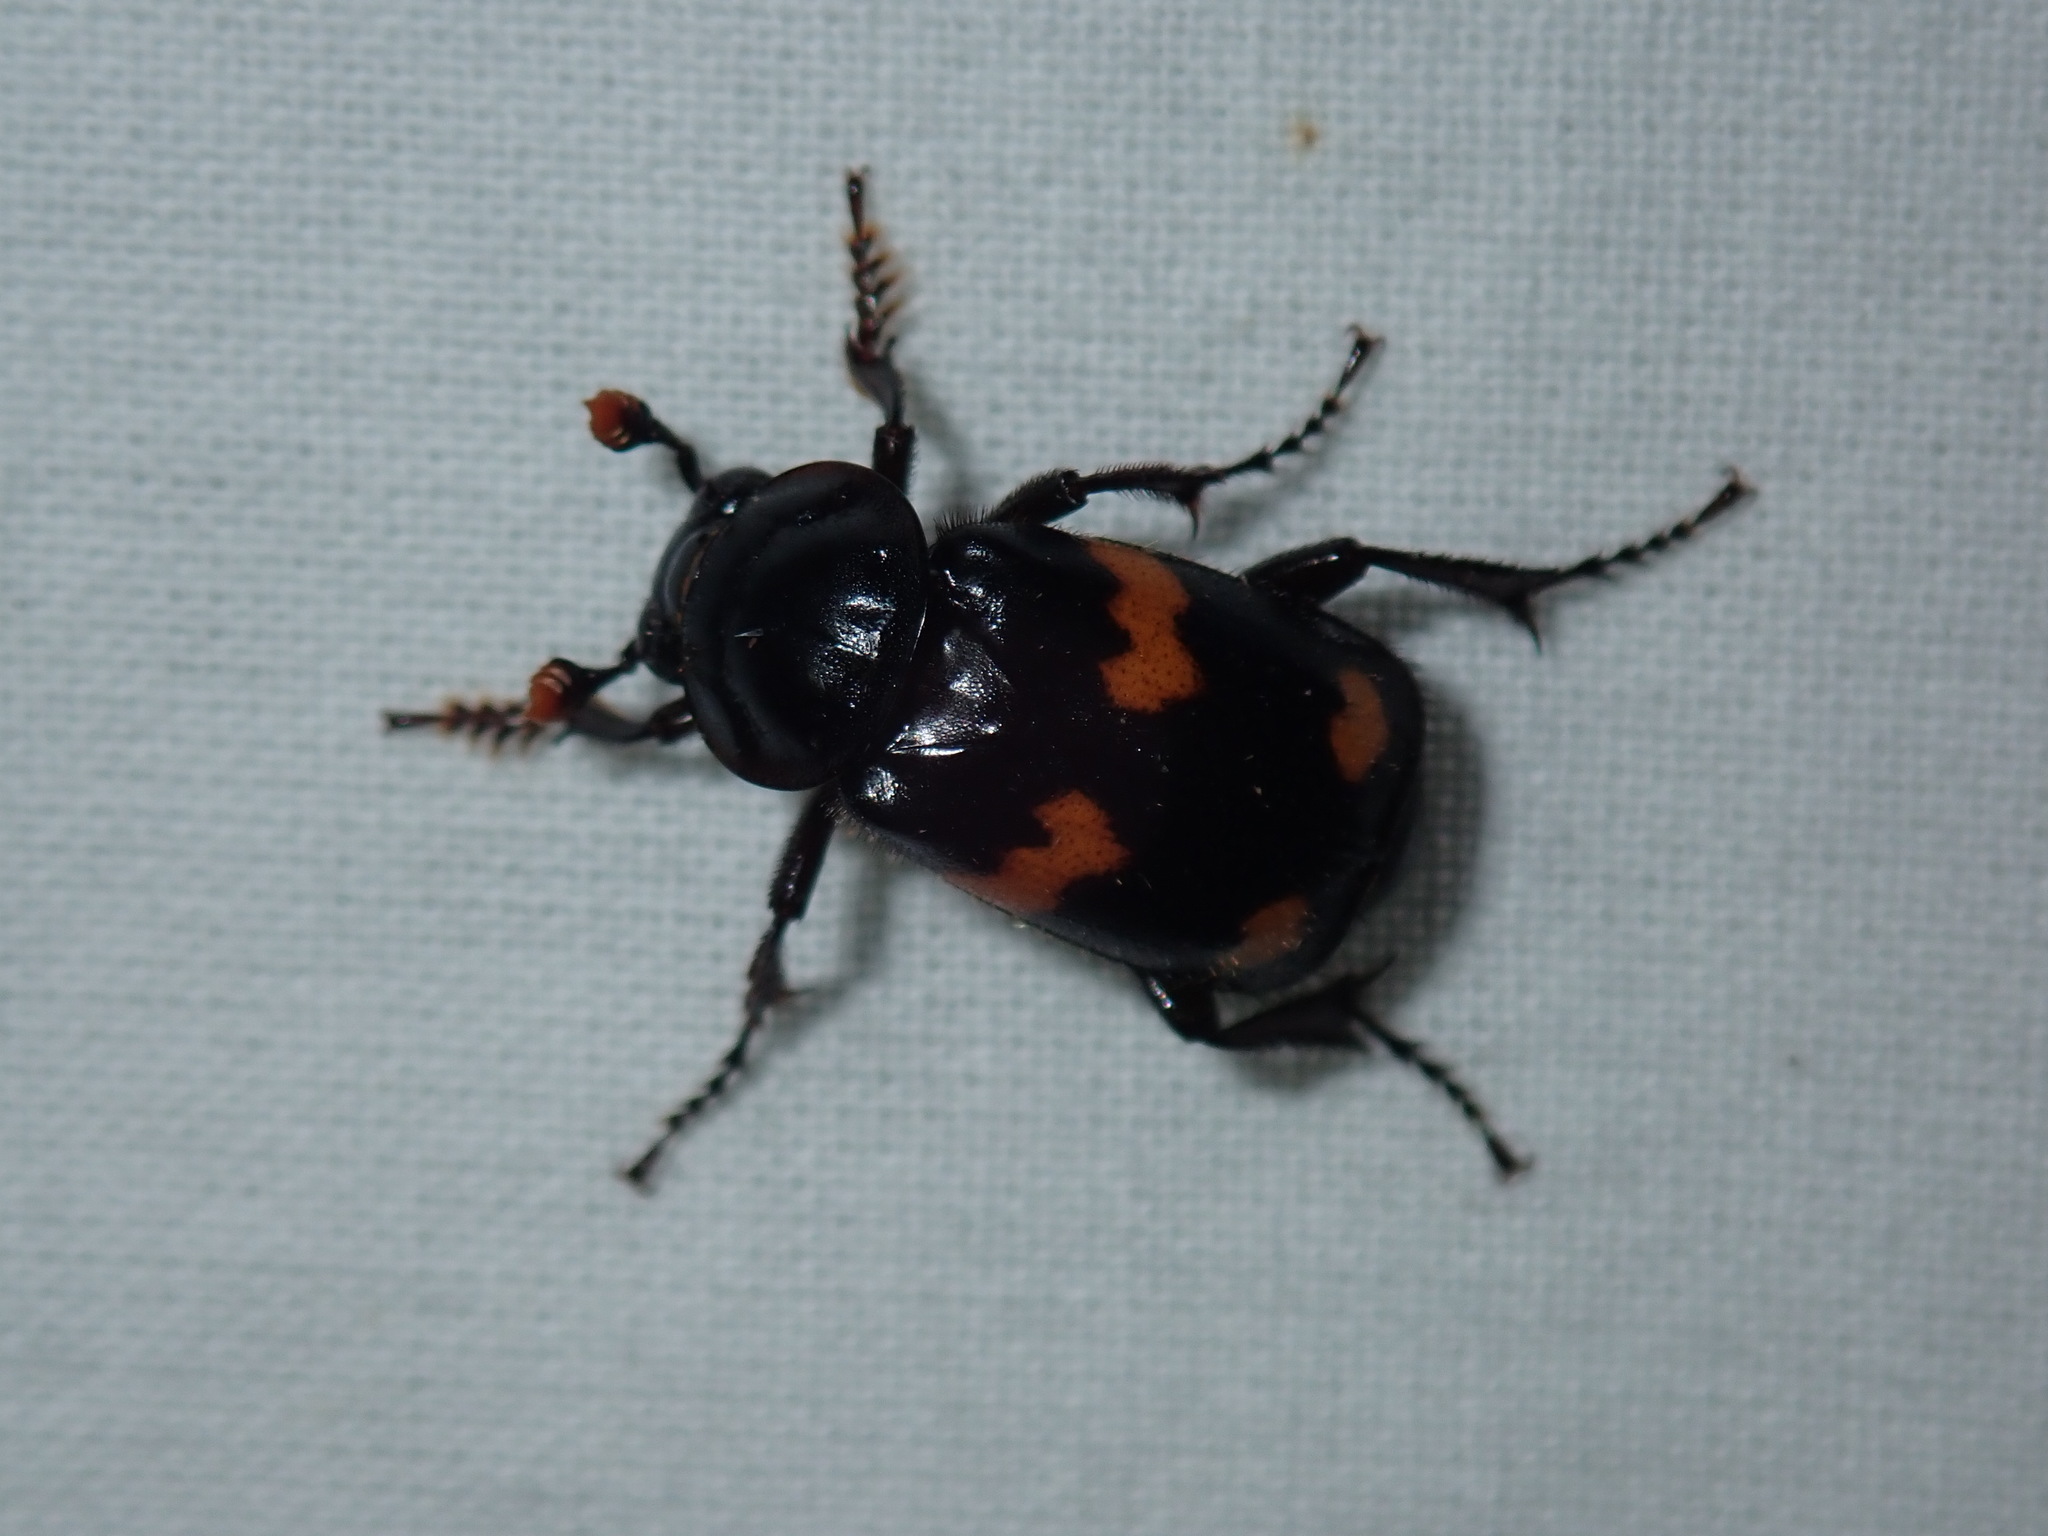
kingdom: Animalia
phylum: Arthropoda
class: Insecta
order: Coleoptera
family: Staphylinidae
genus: Nicrophorus
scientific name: Nicrophorus orbicollis
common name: Roundneck sexton beetle
